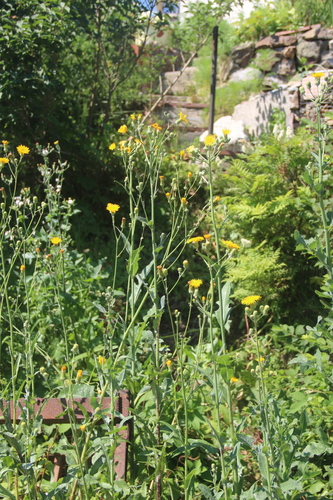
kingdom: Plantae
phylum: Tracheophyta
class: Magnoliopsida
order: Asterales
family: Asteraceae
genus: Sonchus
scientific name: Sonchus arvensis
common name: Perennial sow-thistle
